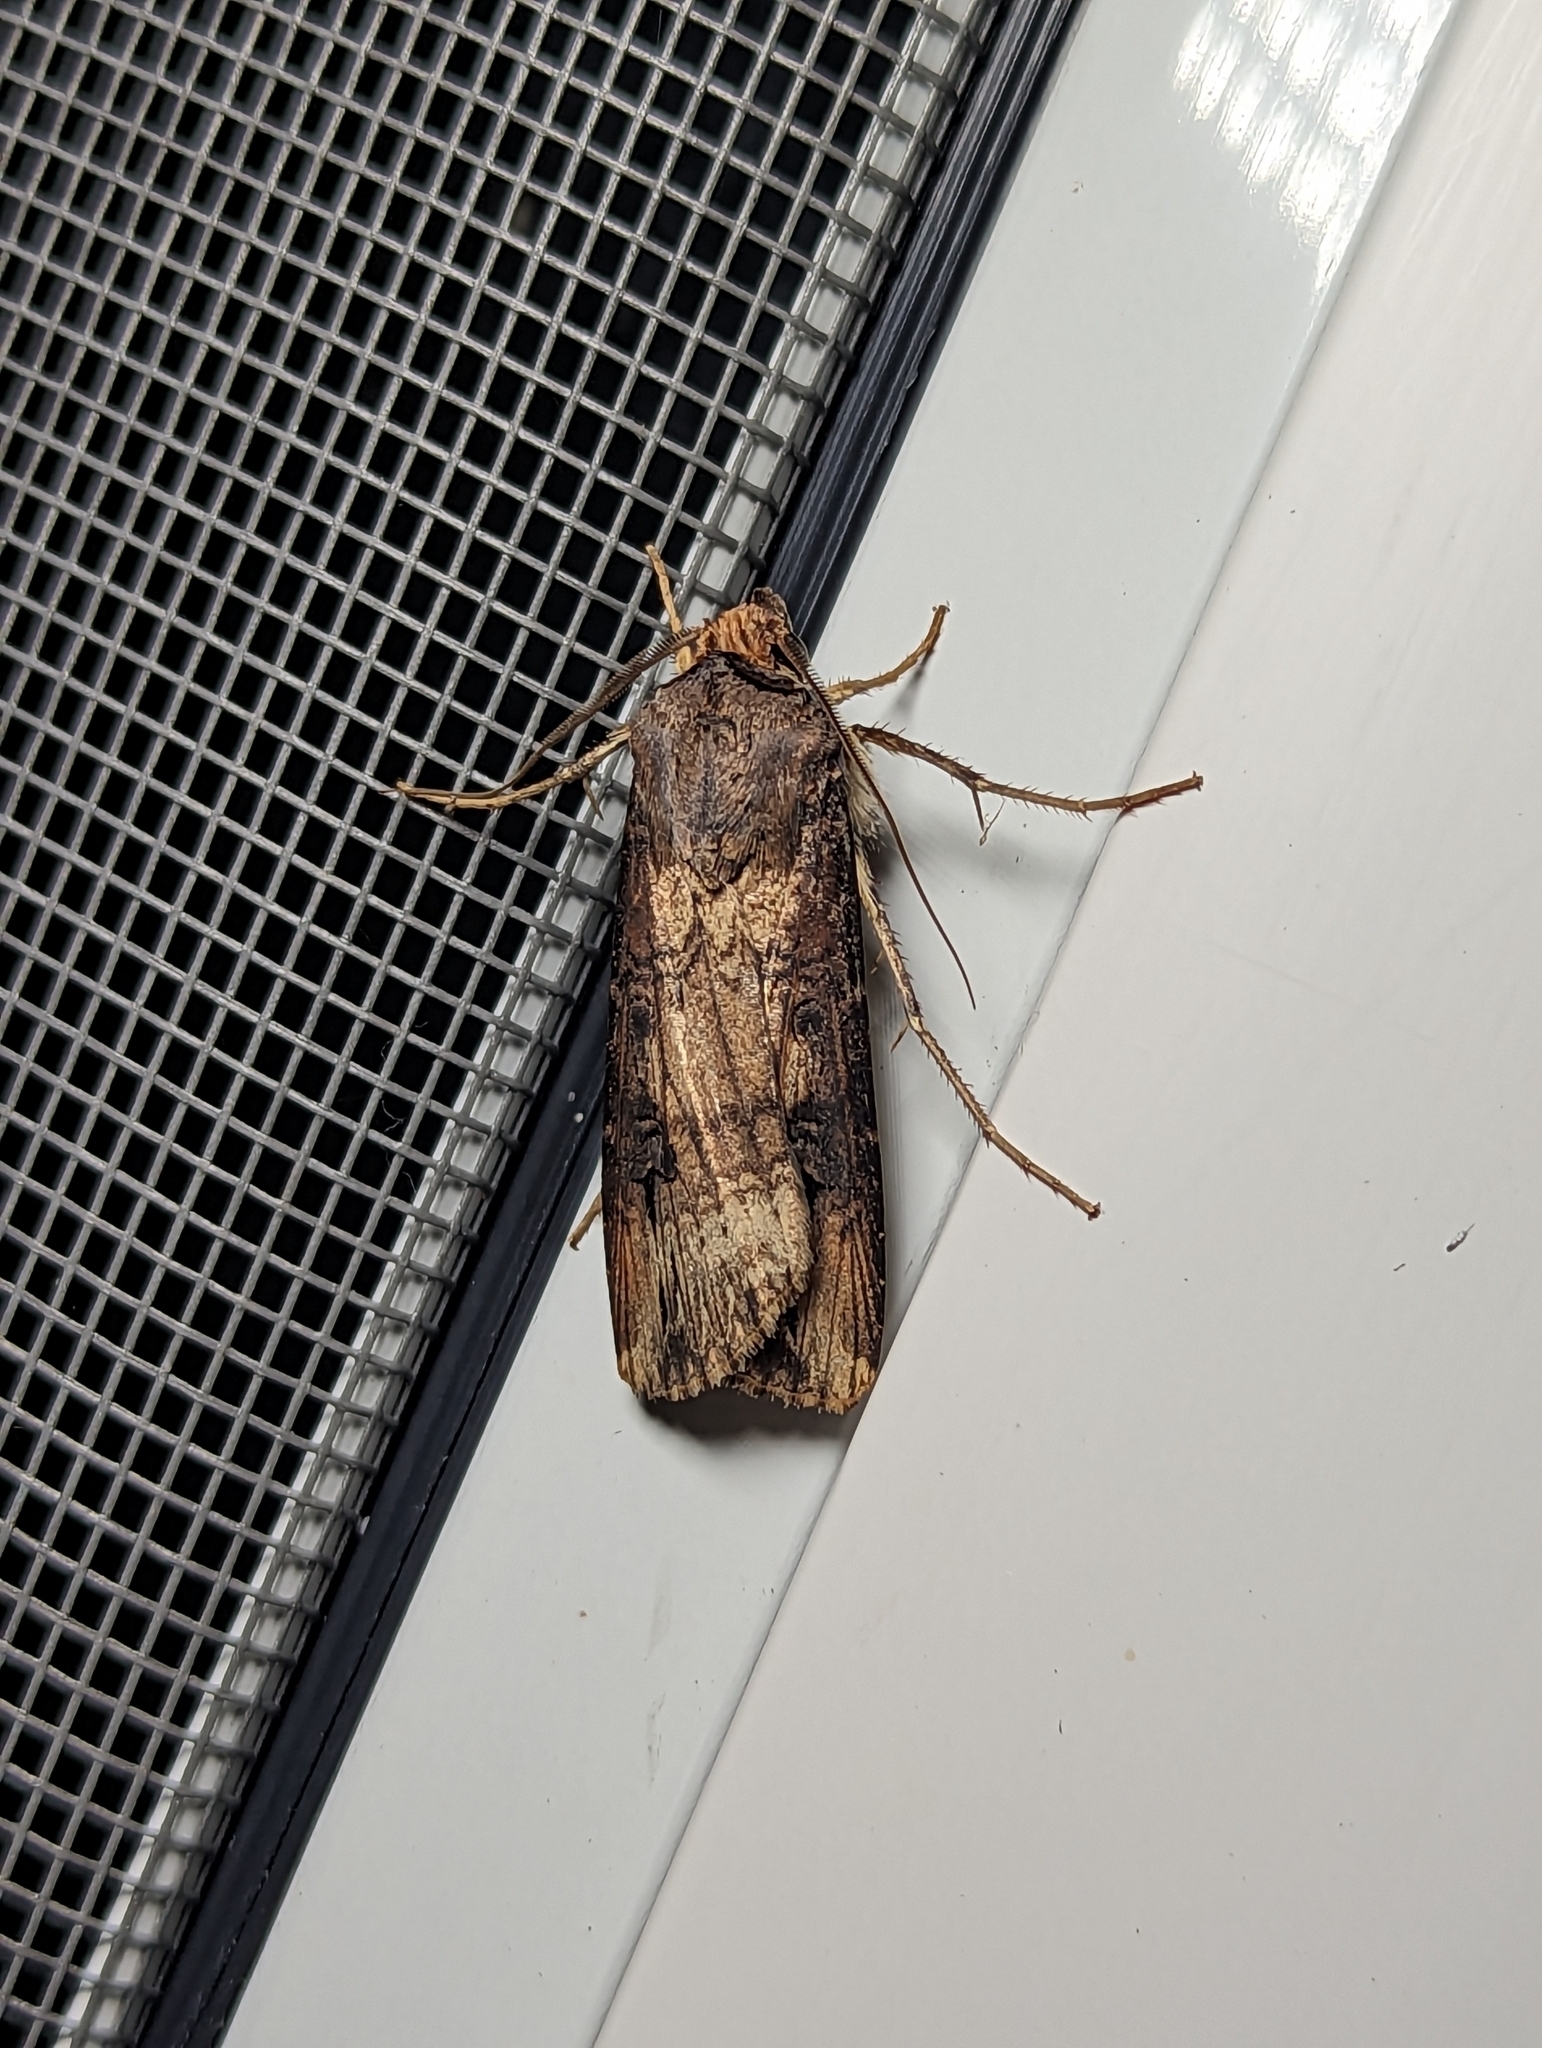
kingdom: Animalia
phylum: Arthropoda
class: Insecta
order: Lepidoptera
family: Noctuidae
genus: Agrotis
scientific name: Agrotis ipsilon
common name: Dark sword-grass
